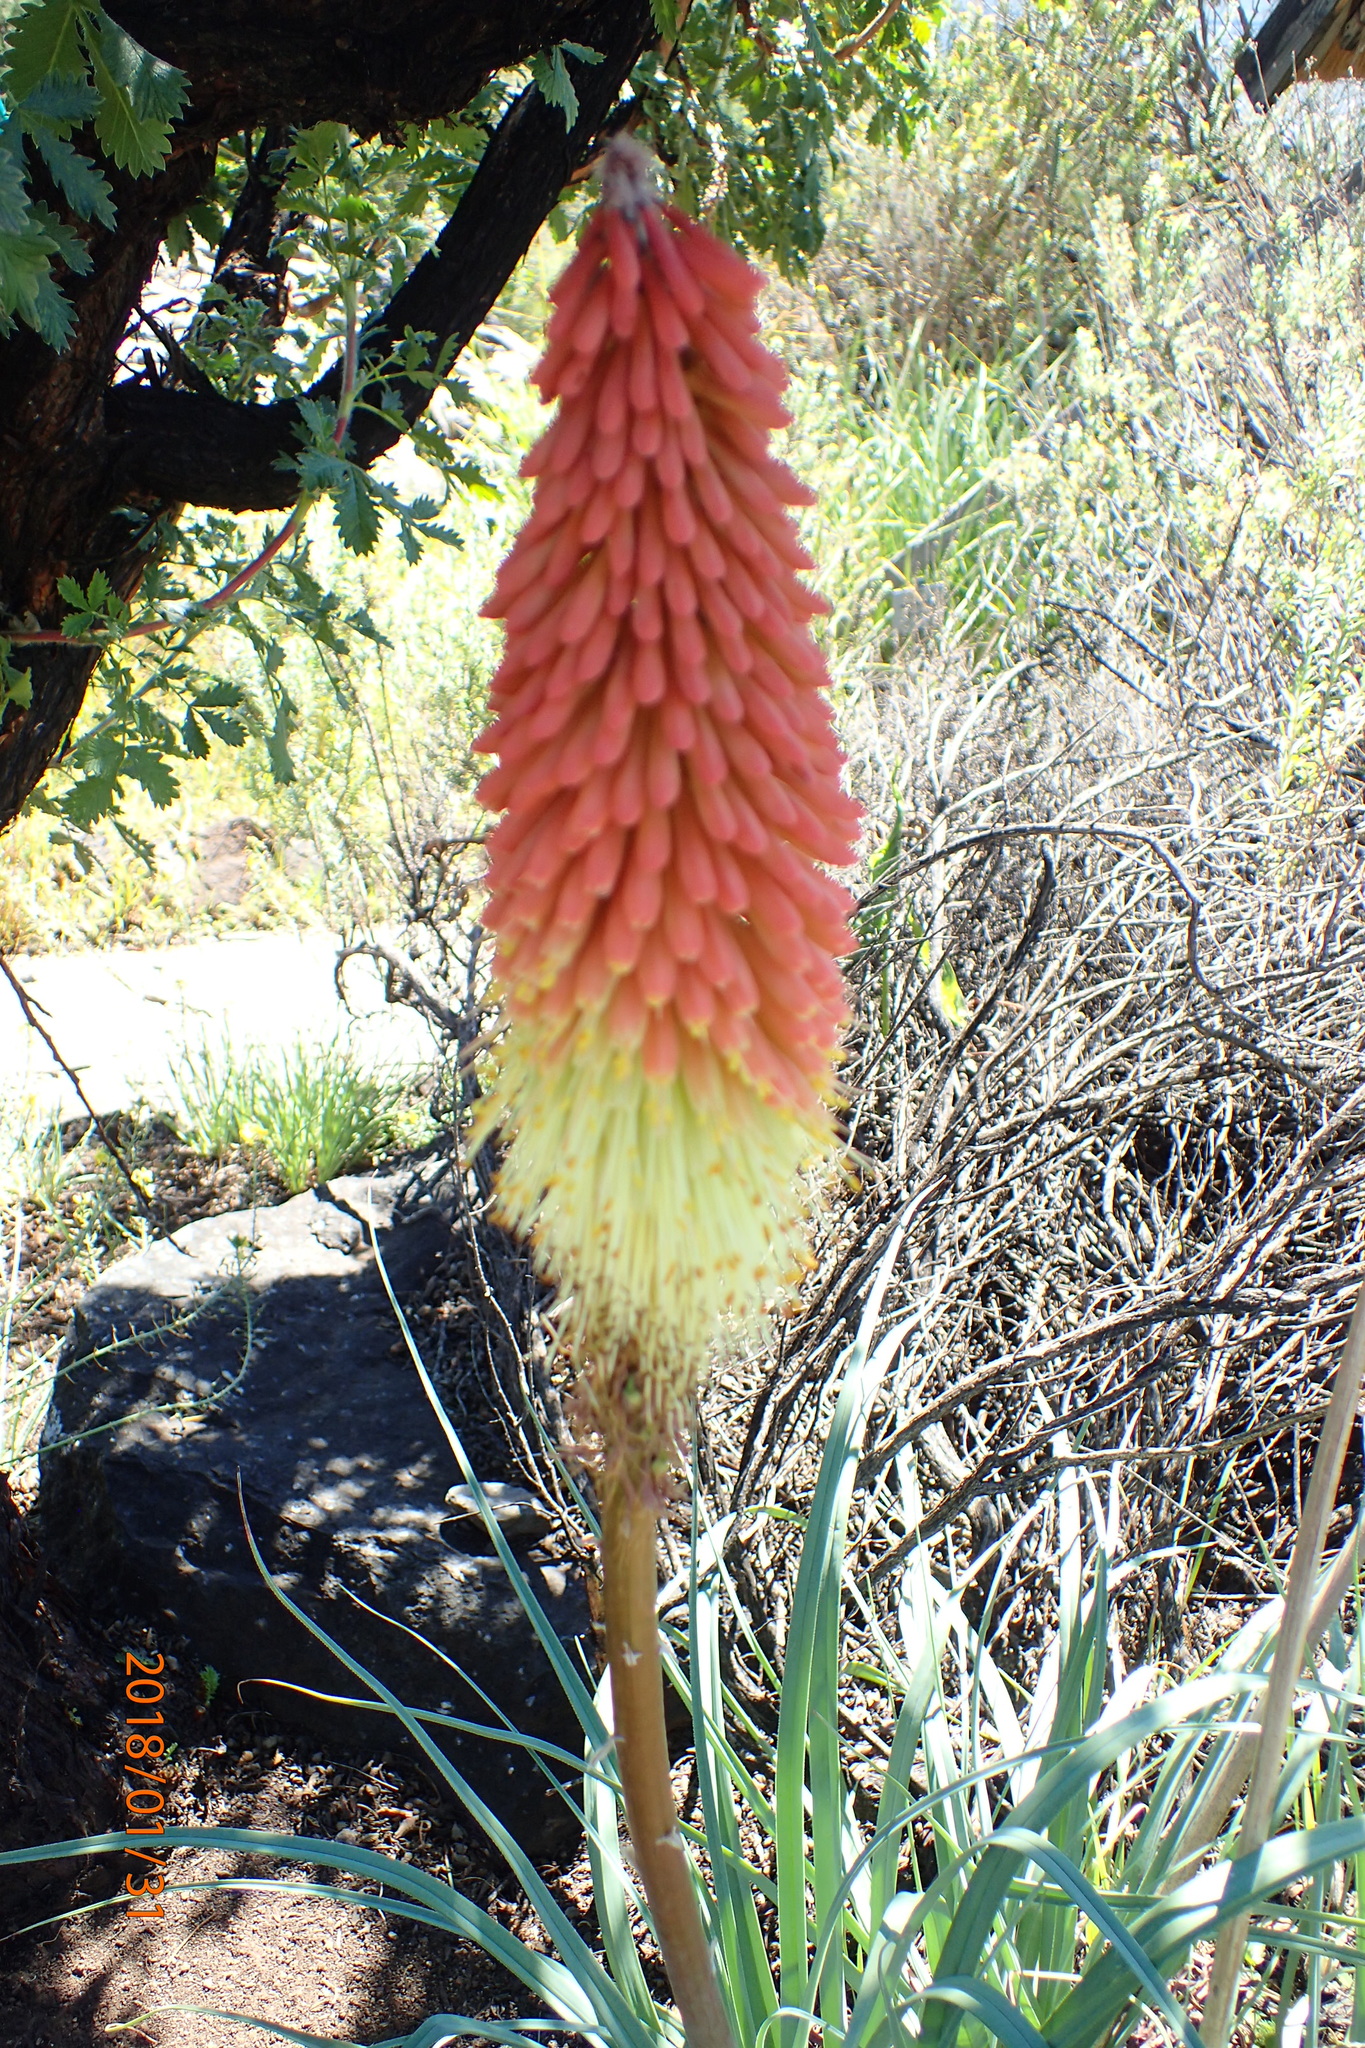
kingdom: Plantae
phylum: Tracheophyta
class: Liliopsida
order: Asparagales
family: Asphodelaceae
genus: Kniphofia
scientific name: Kniphofia caulescens
